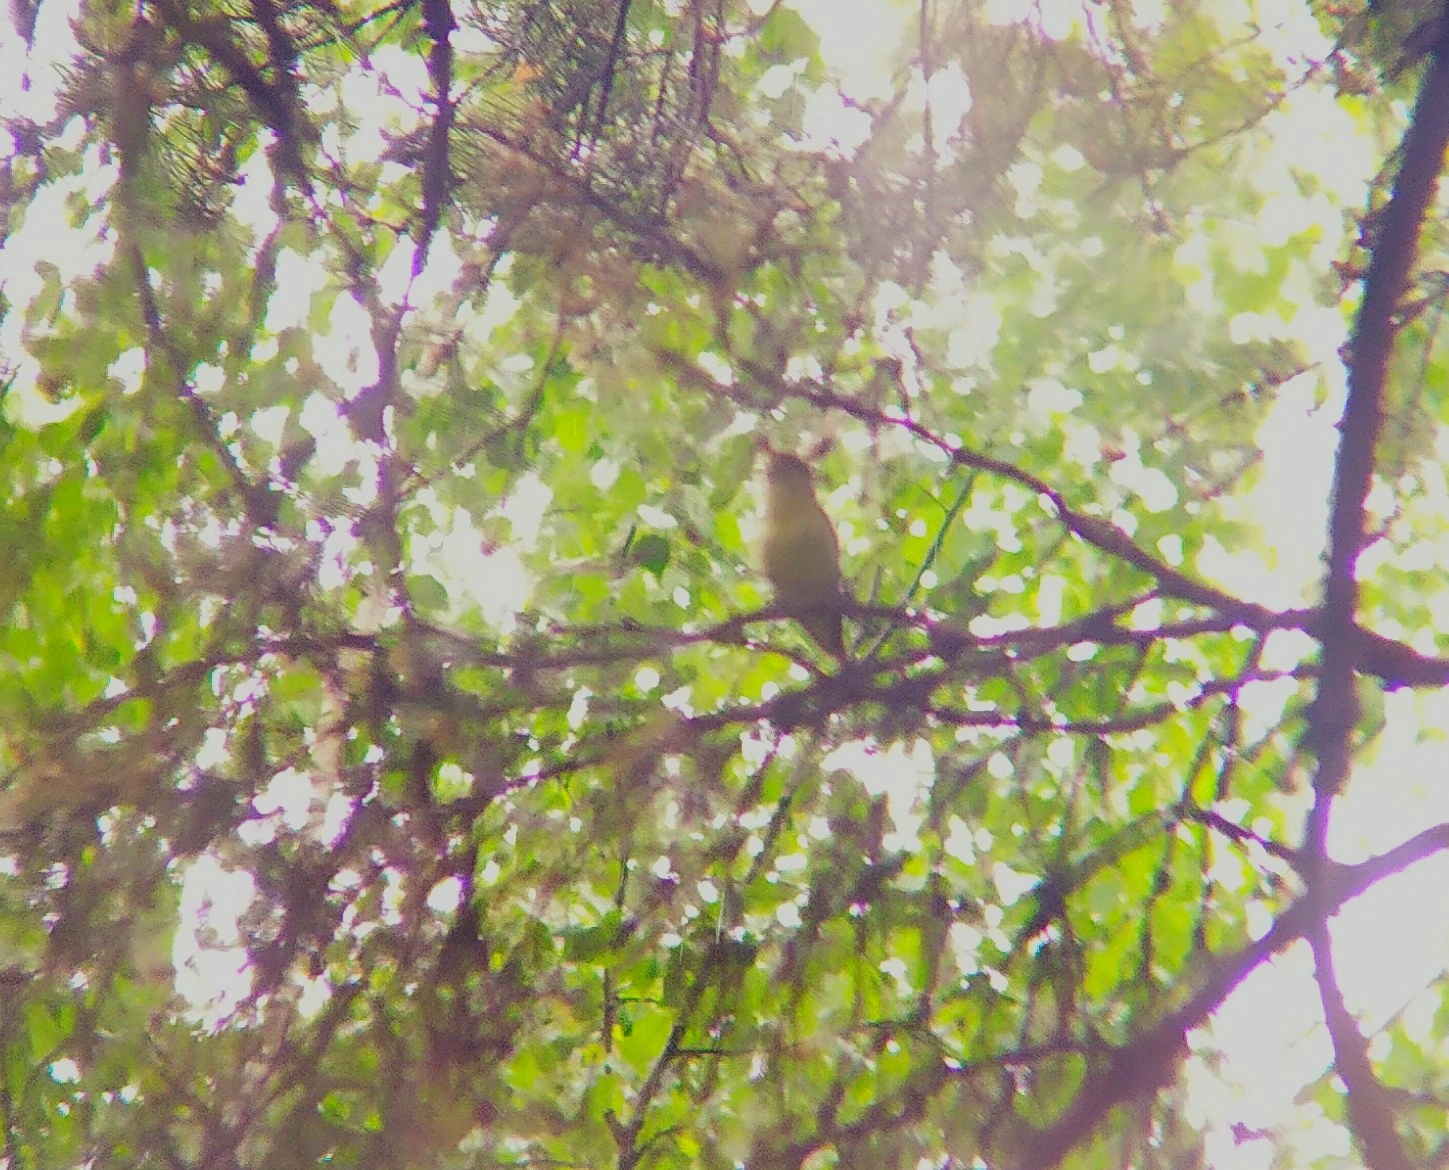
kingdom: Animalia
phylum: Chordata
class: Aves
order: Passeriformes
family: Acrocephalidae
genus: Hippolais
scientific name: Hippolais icterina
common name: Icterine warbler
